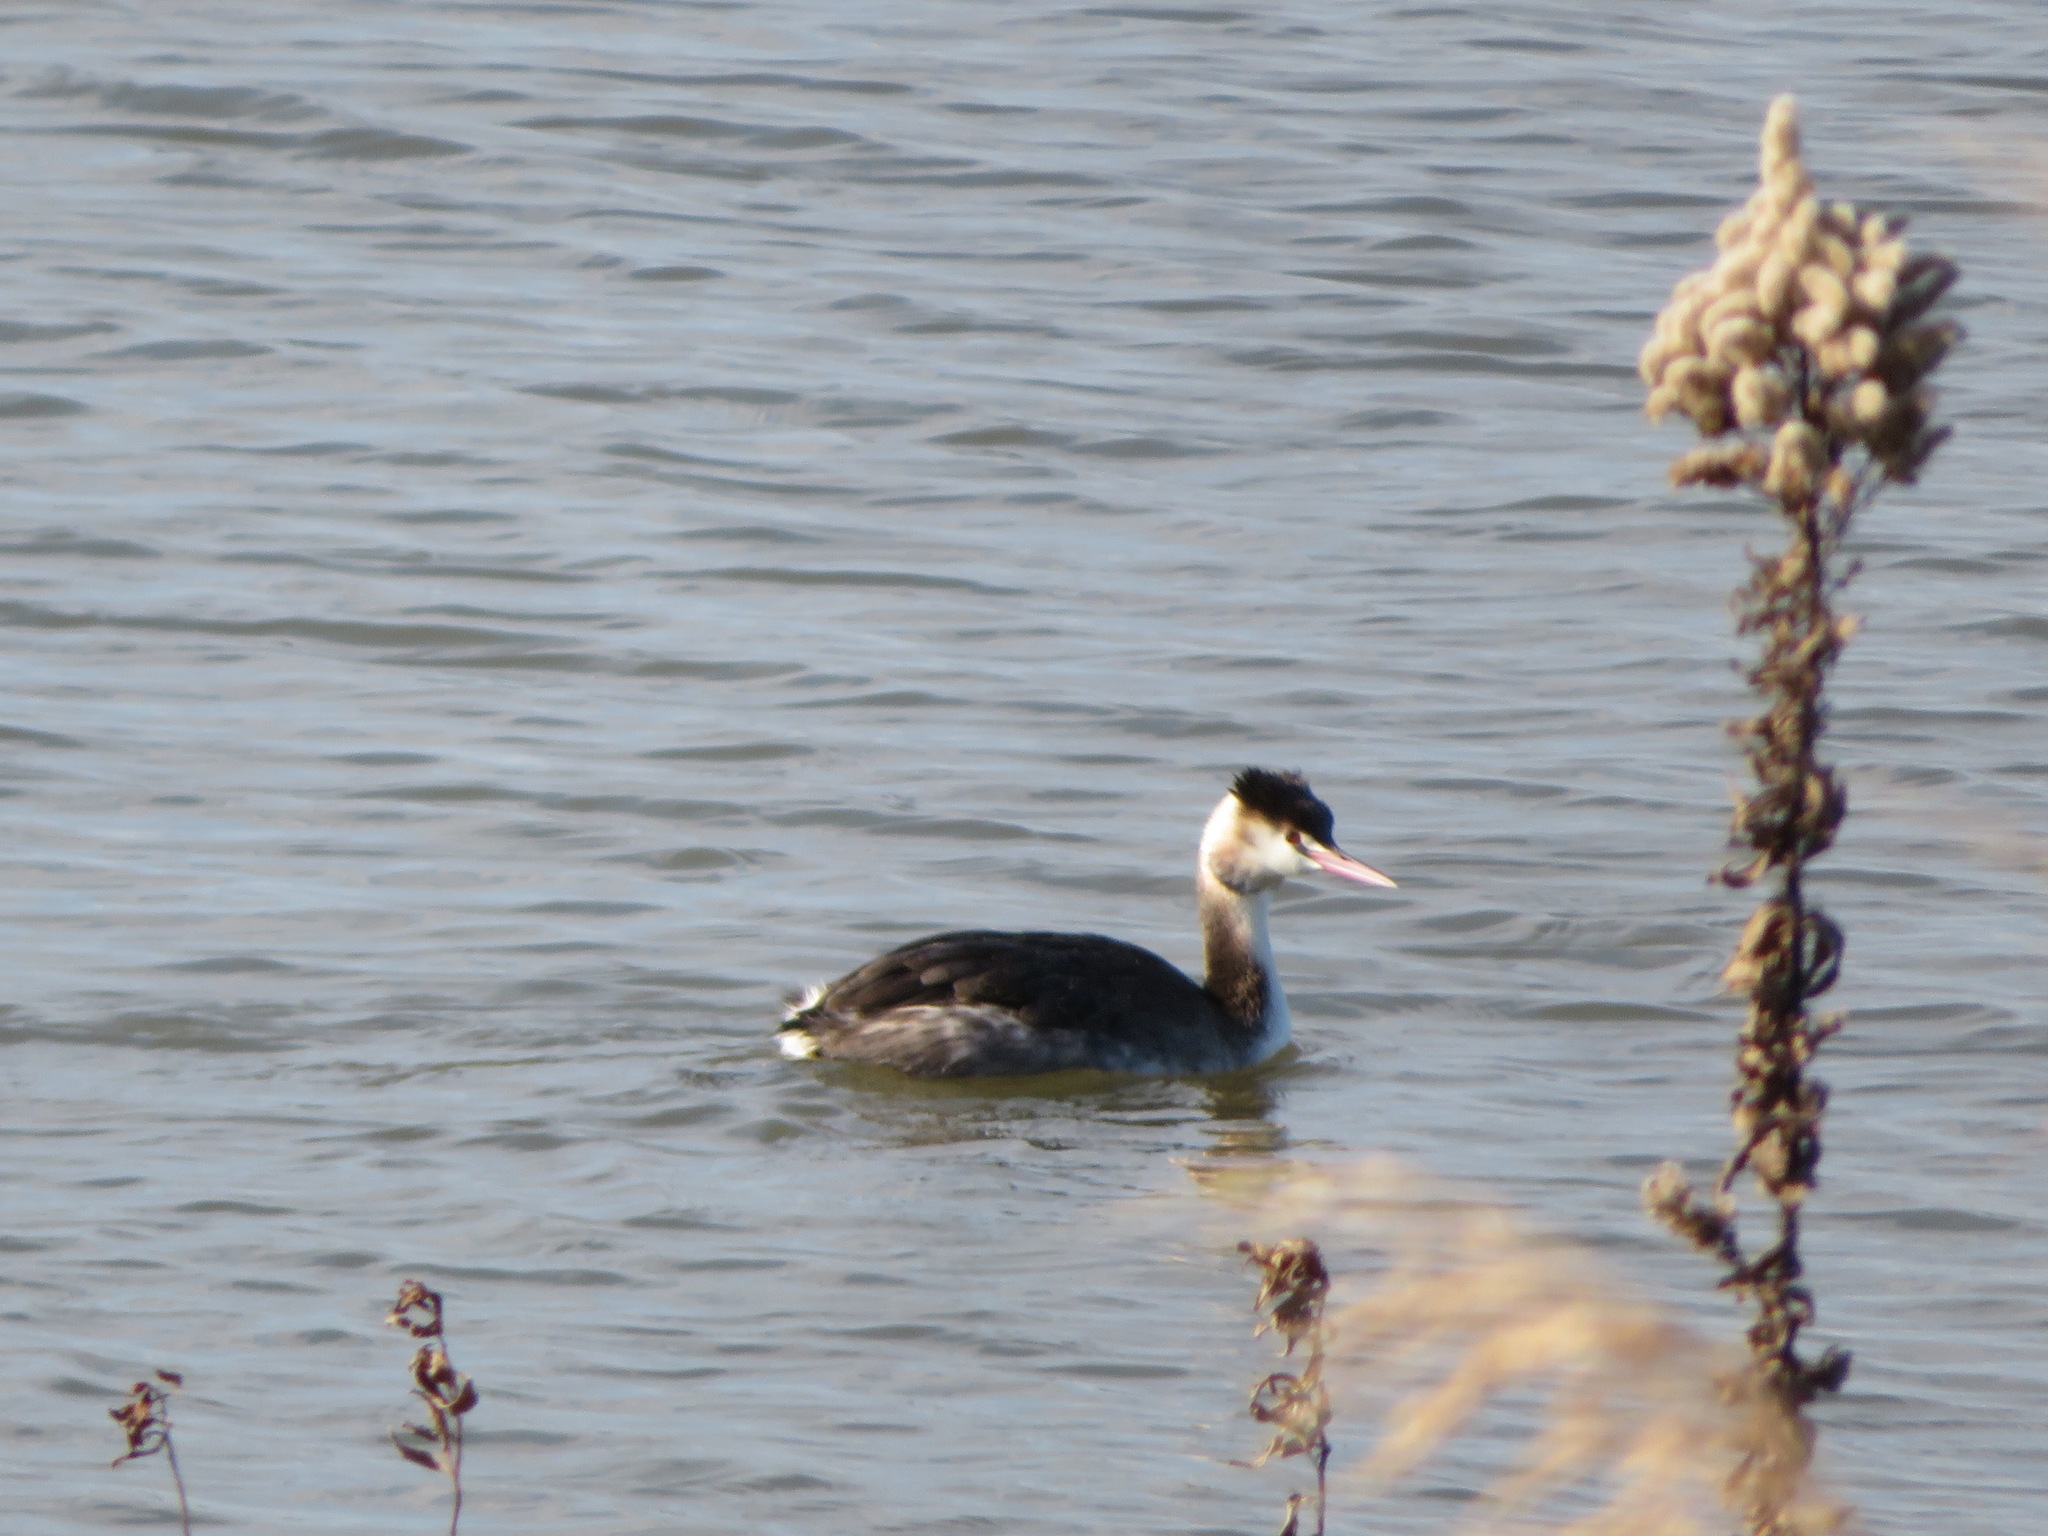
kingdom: Animalia
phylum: Chordata
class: Aves
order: Podicipediformes
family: Podicipedidae
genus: Podiceps
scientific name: Podiceps cristatus
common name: Great crested grebe
